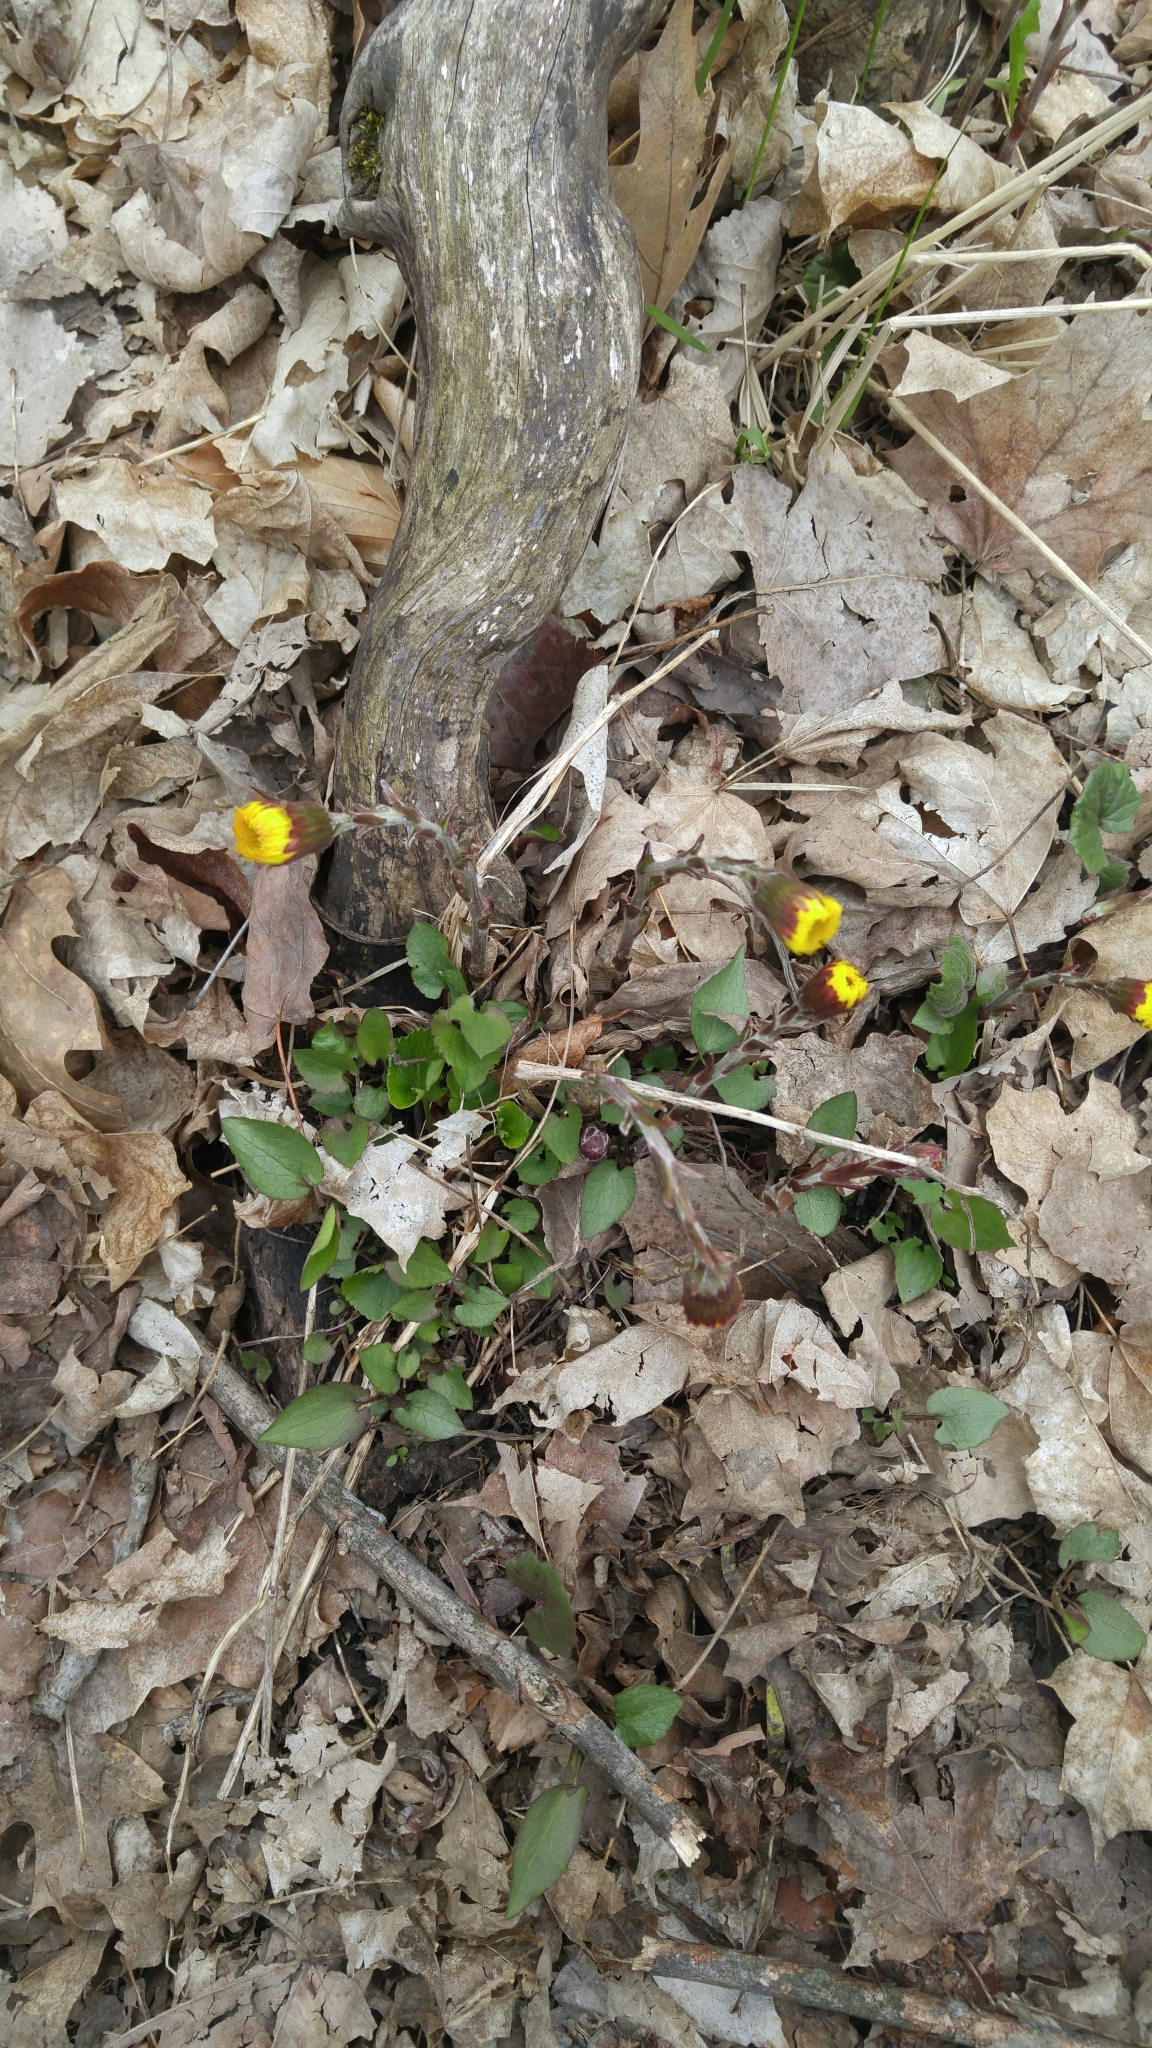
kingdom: Plantae
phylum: Tracheophyta
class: Magnoliopsida
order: Asterales
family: Asteraceae
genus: Tussilago
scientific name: Tussilago farfara
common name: Coltsfoot
